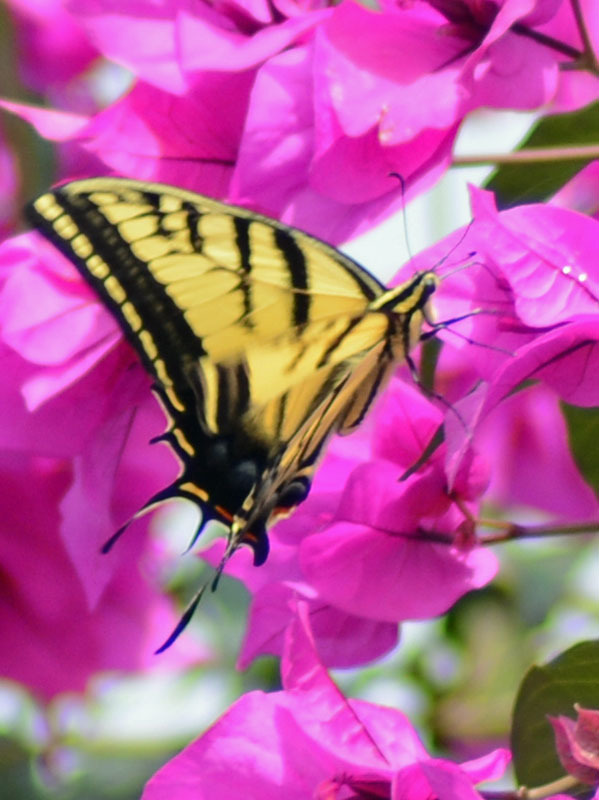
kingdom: Animalia
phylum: Arthropoda
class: Insecta
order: Lepidoptera
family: Papilionidae
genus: Papilio
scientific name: Papilio multicaudata
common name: Two-tailed tiger swallowtail
